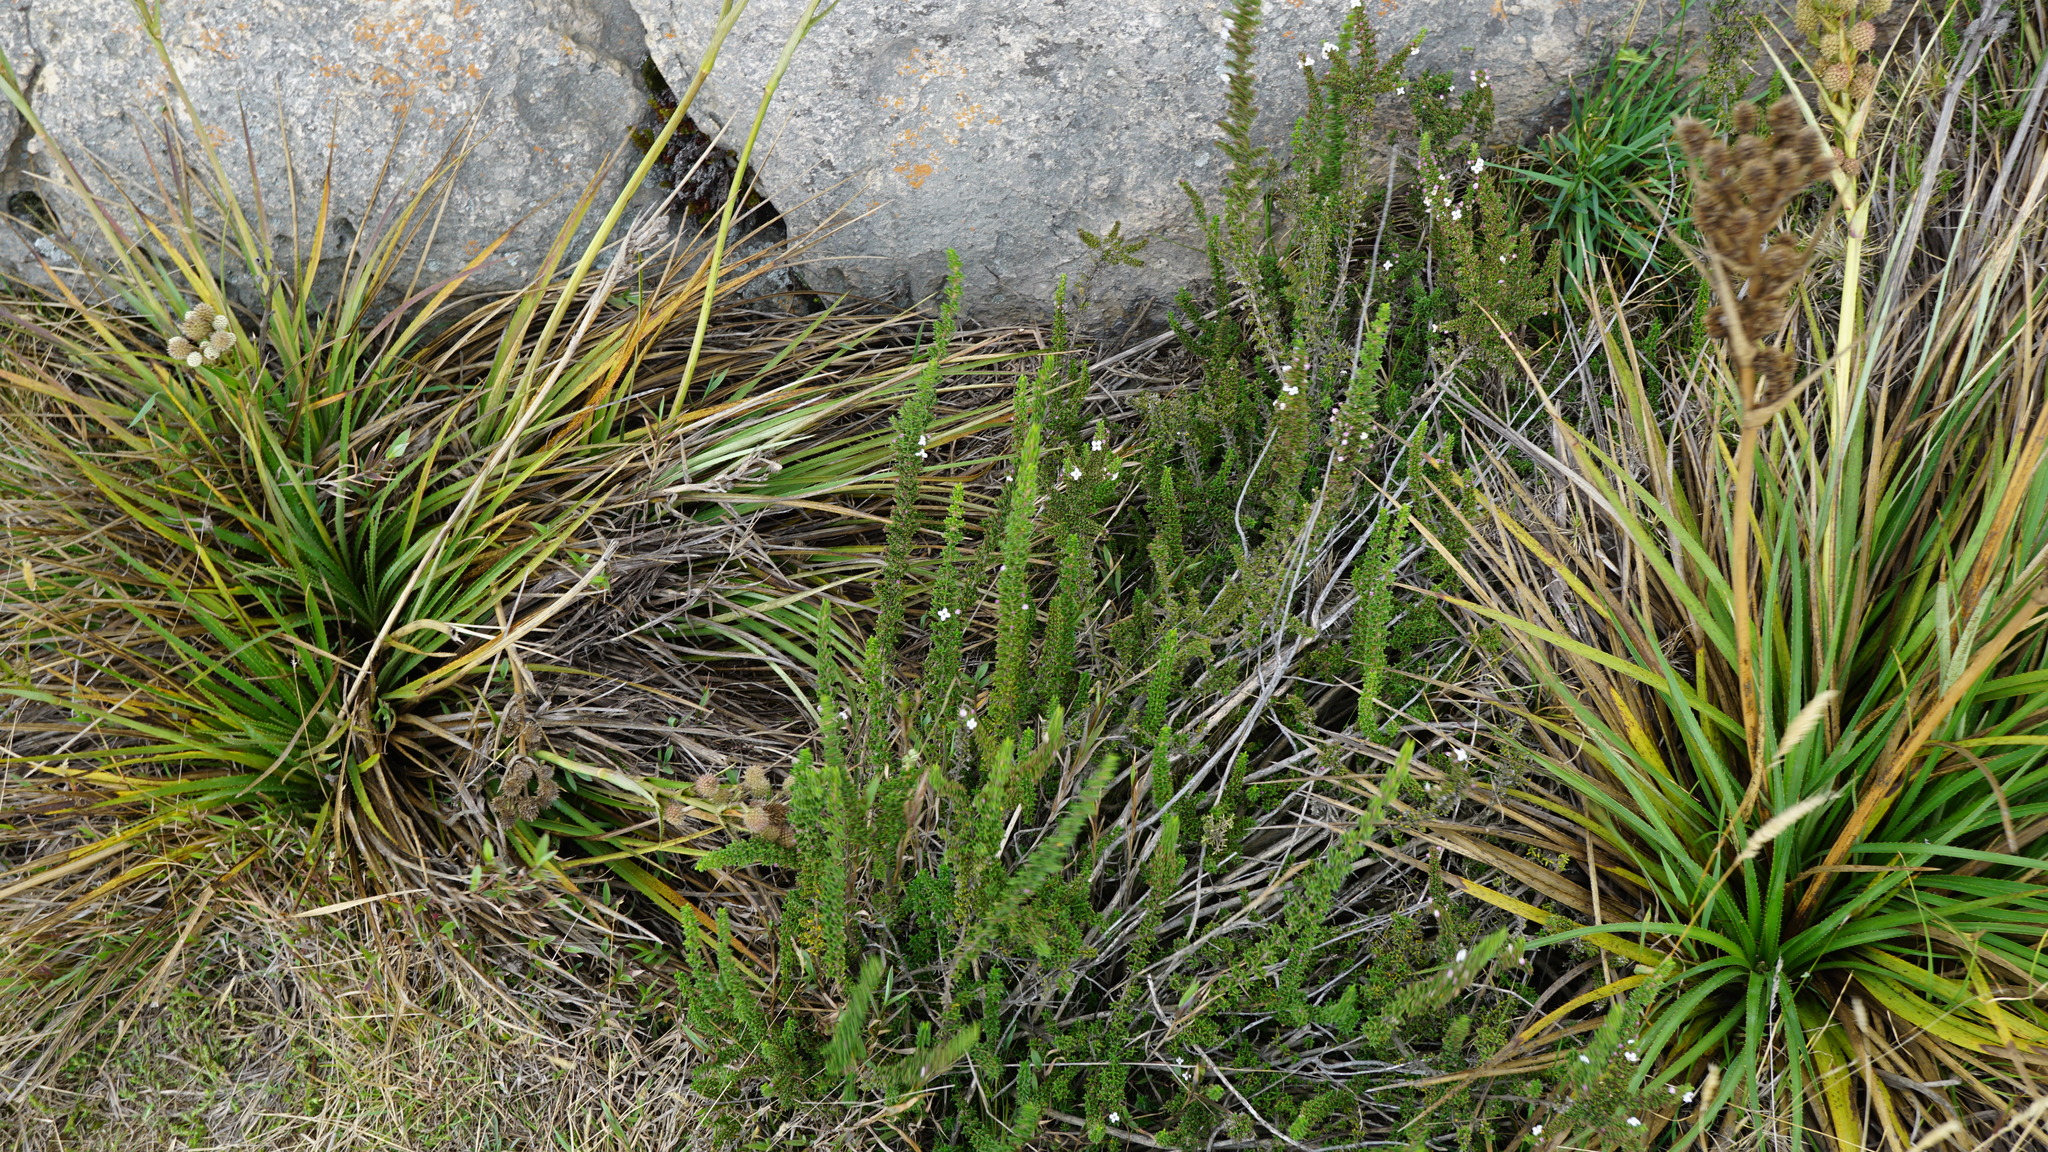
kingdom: Plantae
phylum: Tracheophyta
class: Magnoliopsida
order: Gentianales
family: Rubiaceae
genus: Arcytophyllum
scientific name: Arcytophyllum nitidum
